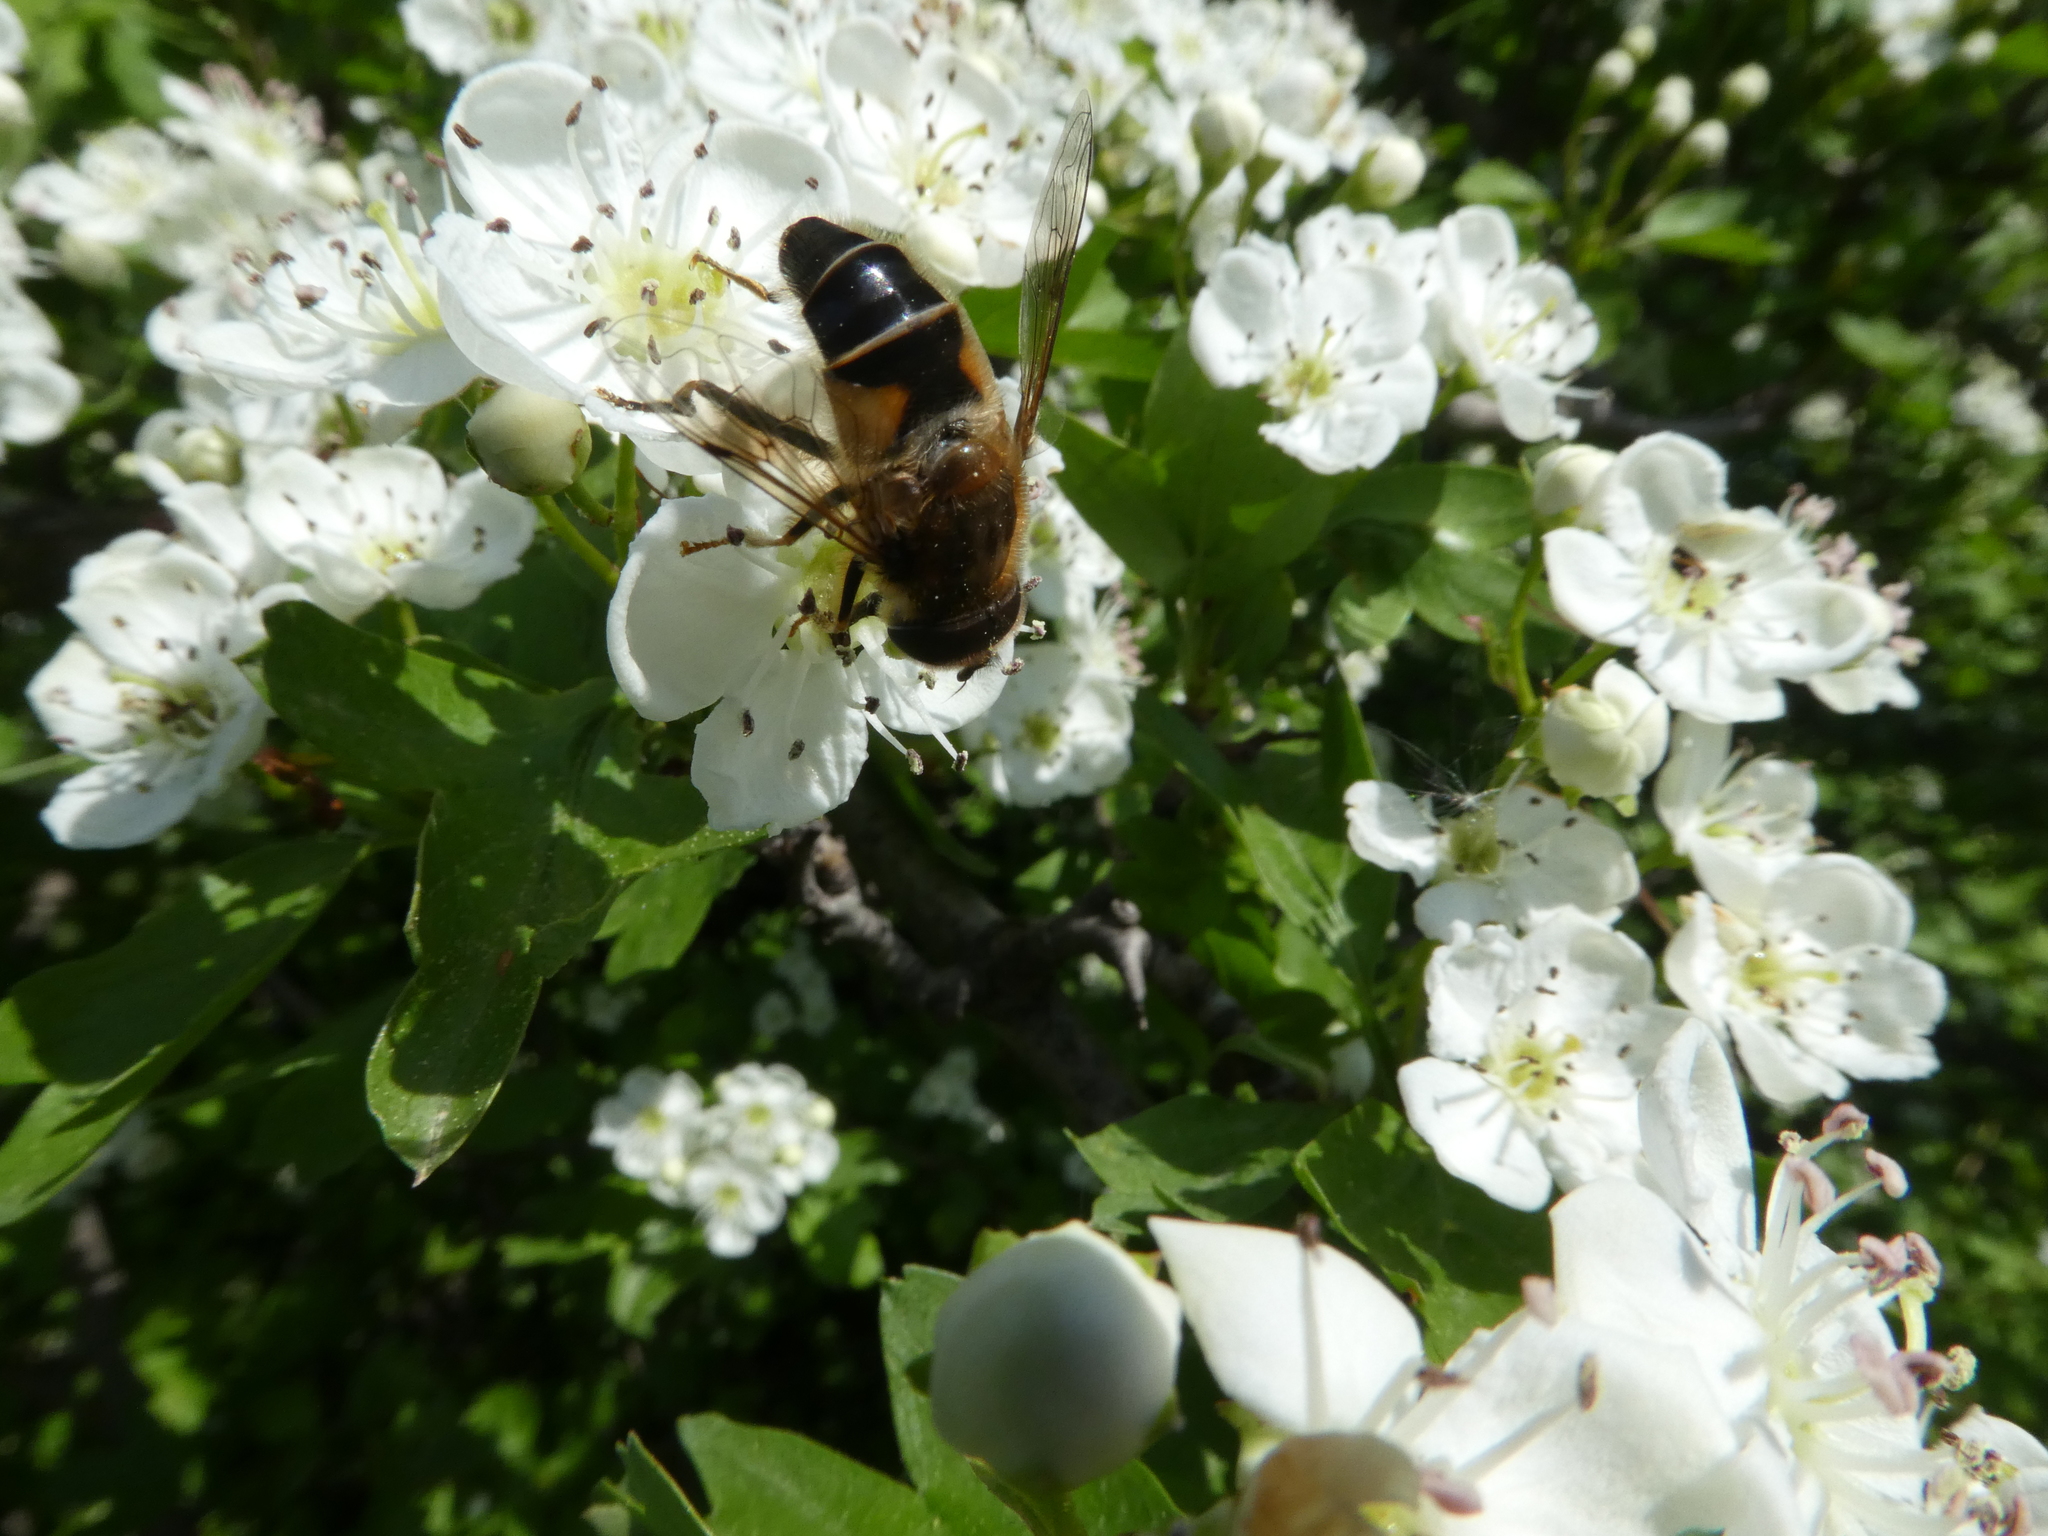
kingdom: Animalia
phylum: Arthropoda
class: Insecta
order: Diptera
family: Syrphidae
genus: Eristalis
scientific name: Eristalis pertinax
